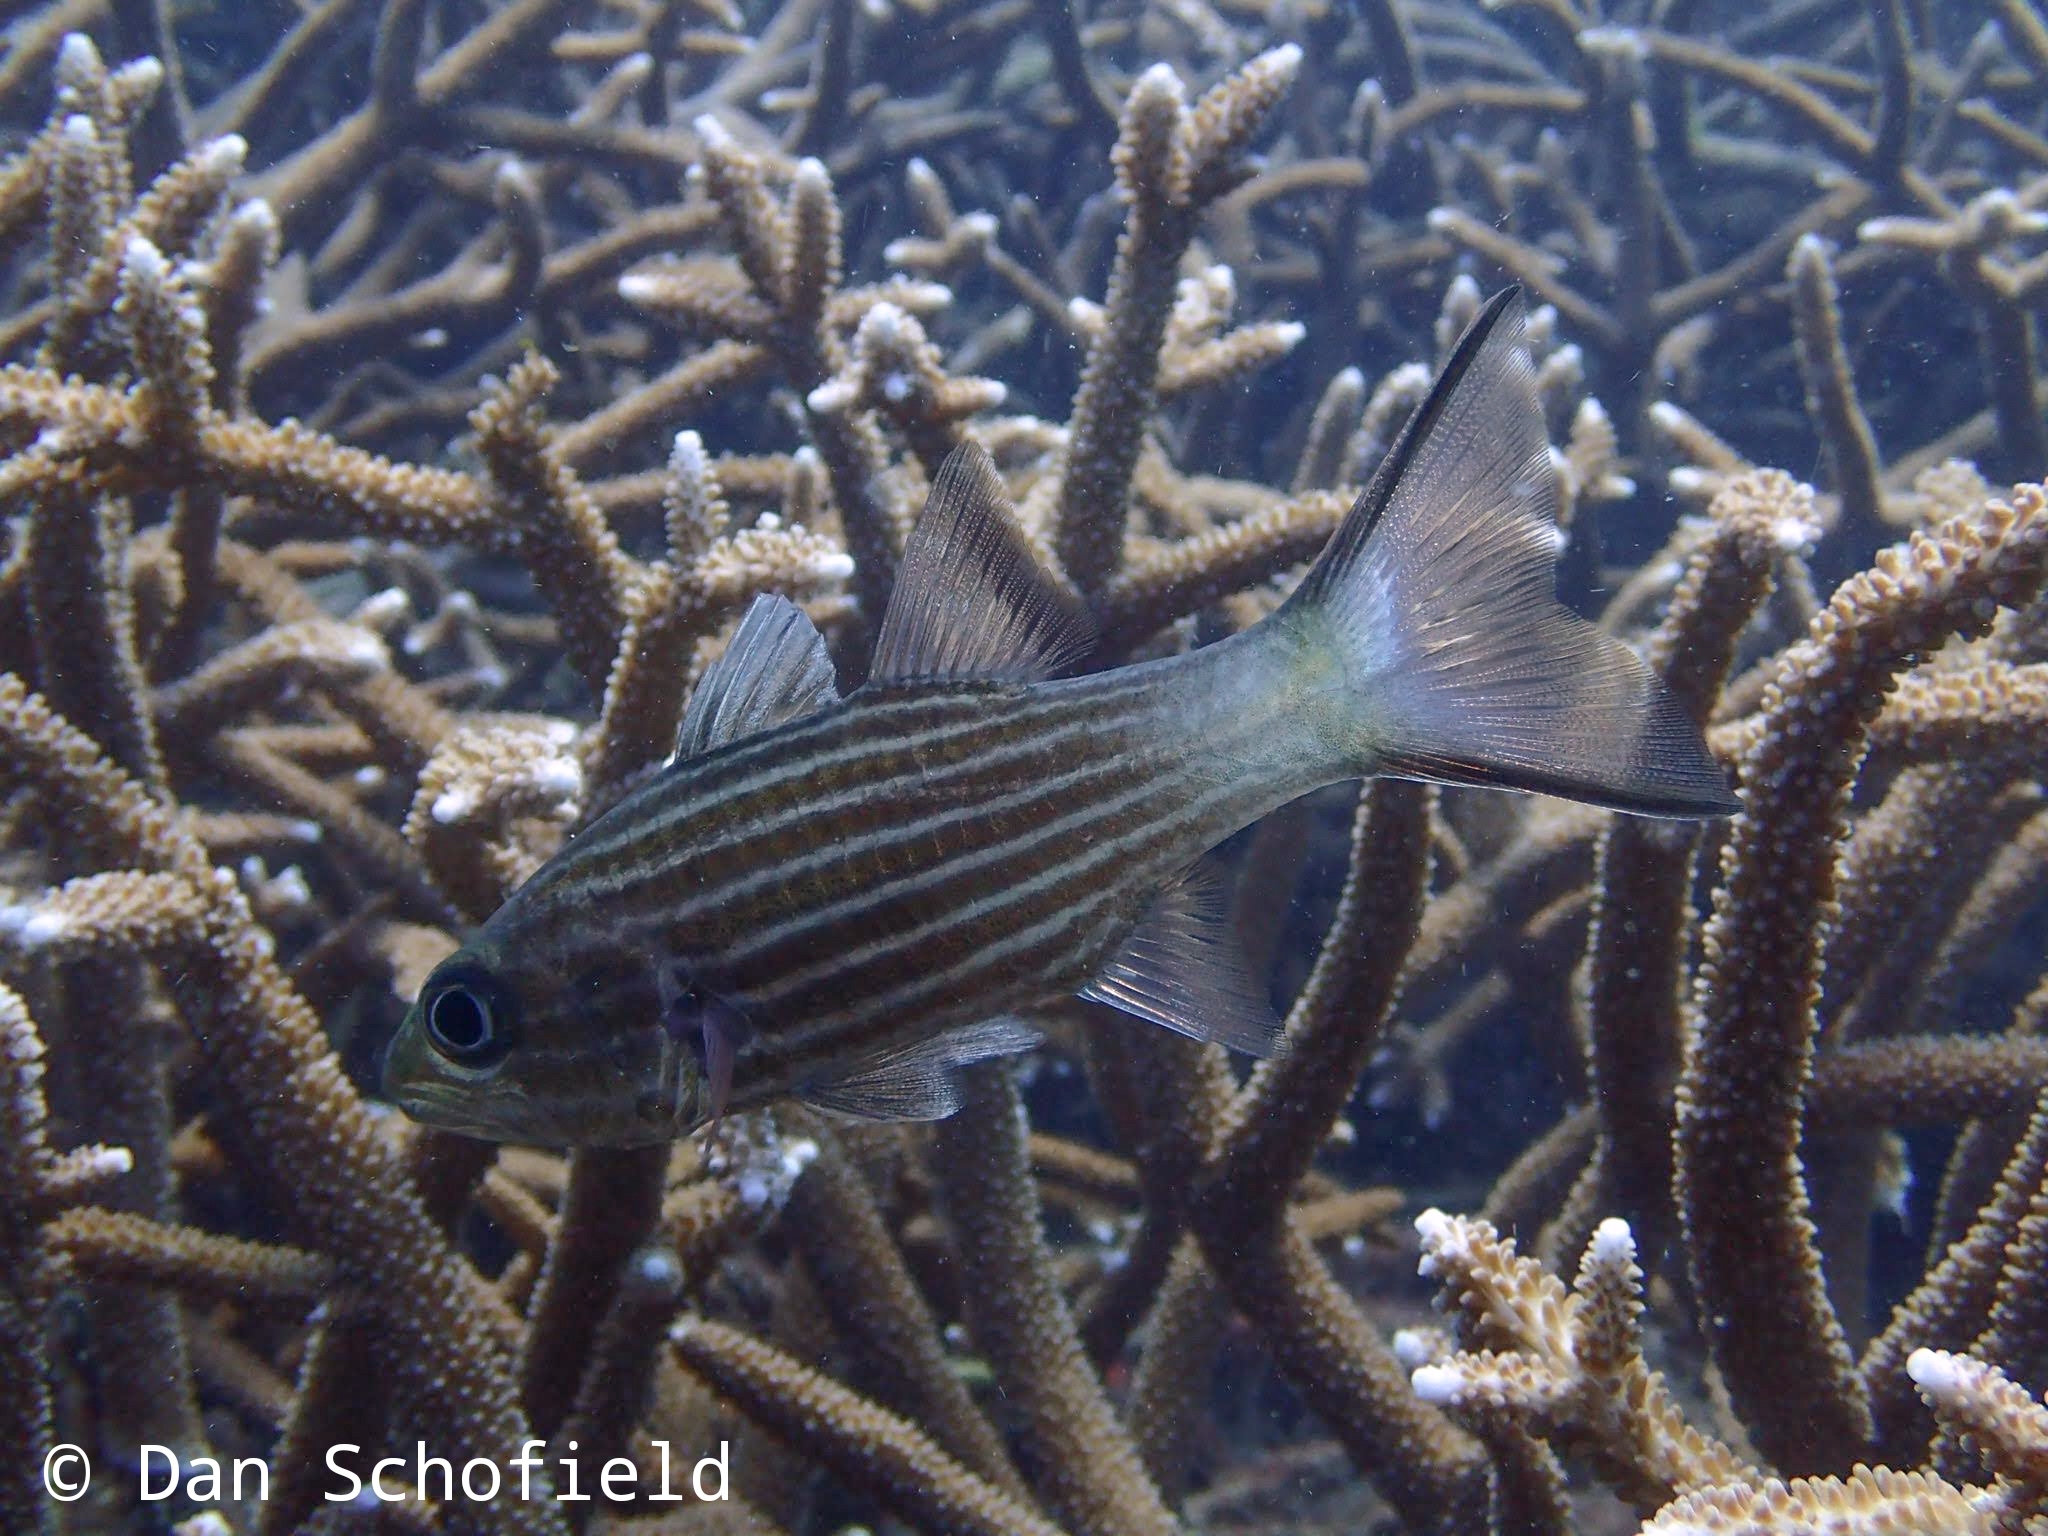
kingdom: Animalia
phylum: Chordata
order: Perciformes
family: Apogonidae
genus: Cheilodipterus
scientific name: Cheilodipterus macrodon
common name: Eight-lined cardinalfish
